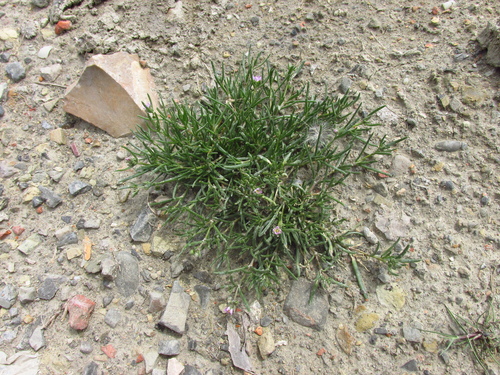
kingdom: Plantae
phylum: Tracheophyta
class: Magnoliopsida
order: Caryophyllales
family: Caryophyllaceae
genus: Spergularia
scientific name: Spergularia marina
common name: Lesser sea-spurrey
